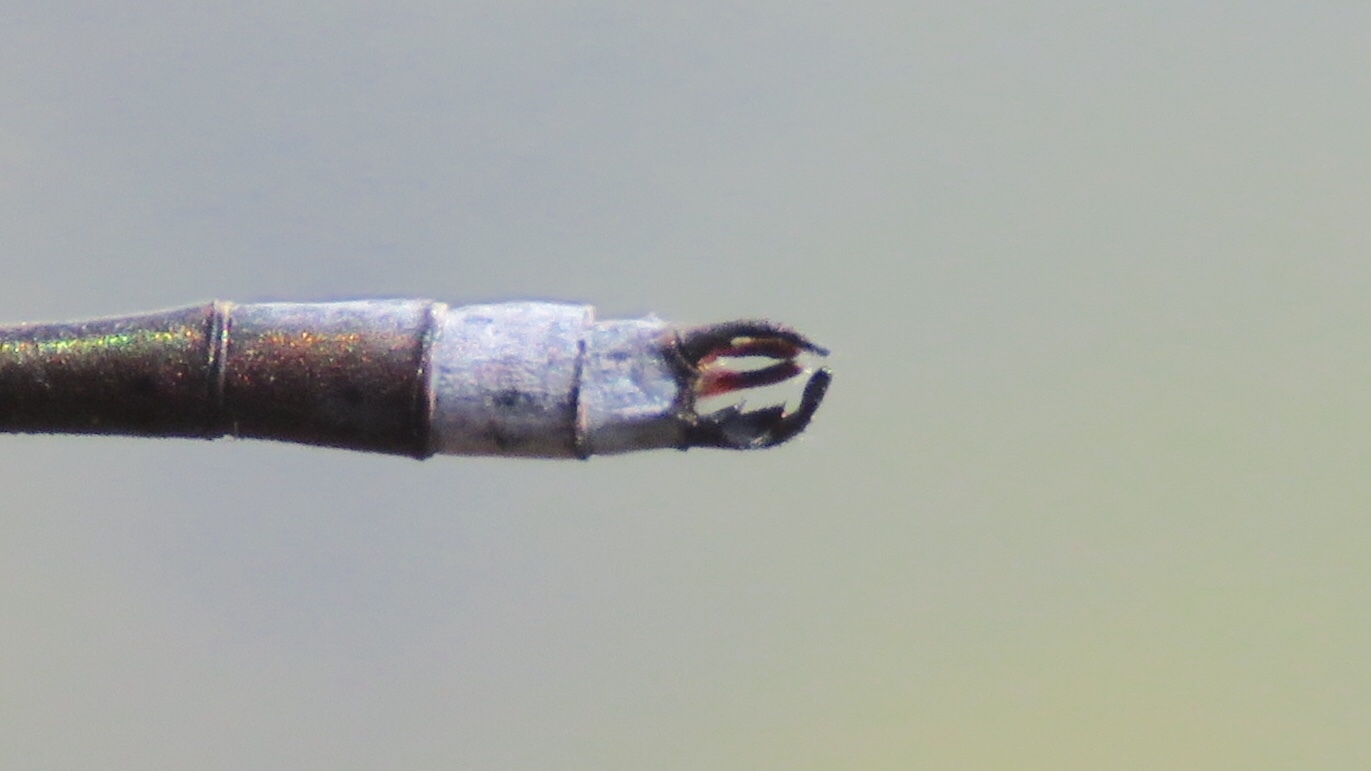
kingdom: Animalia
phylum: Arthropoda
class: Insecta
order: Odonata
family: Lestidae
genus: Lestes
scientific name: Lestes disjunctus
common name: Northern spreadwing
